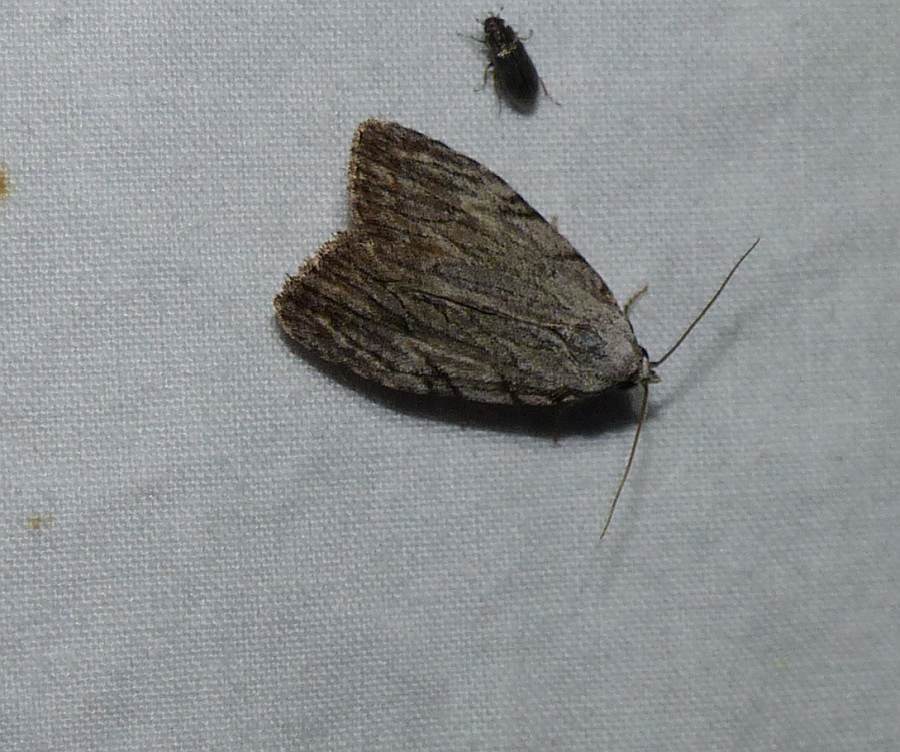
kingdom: Animalia
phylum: Arthropoda
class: Insecta
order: Lepidoptera
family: Noctuidae
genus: Balsa
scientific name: Balsa tristrigella
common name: Three-lined balsa moth
